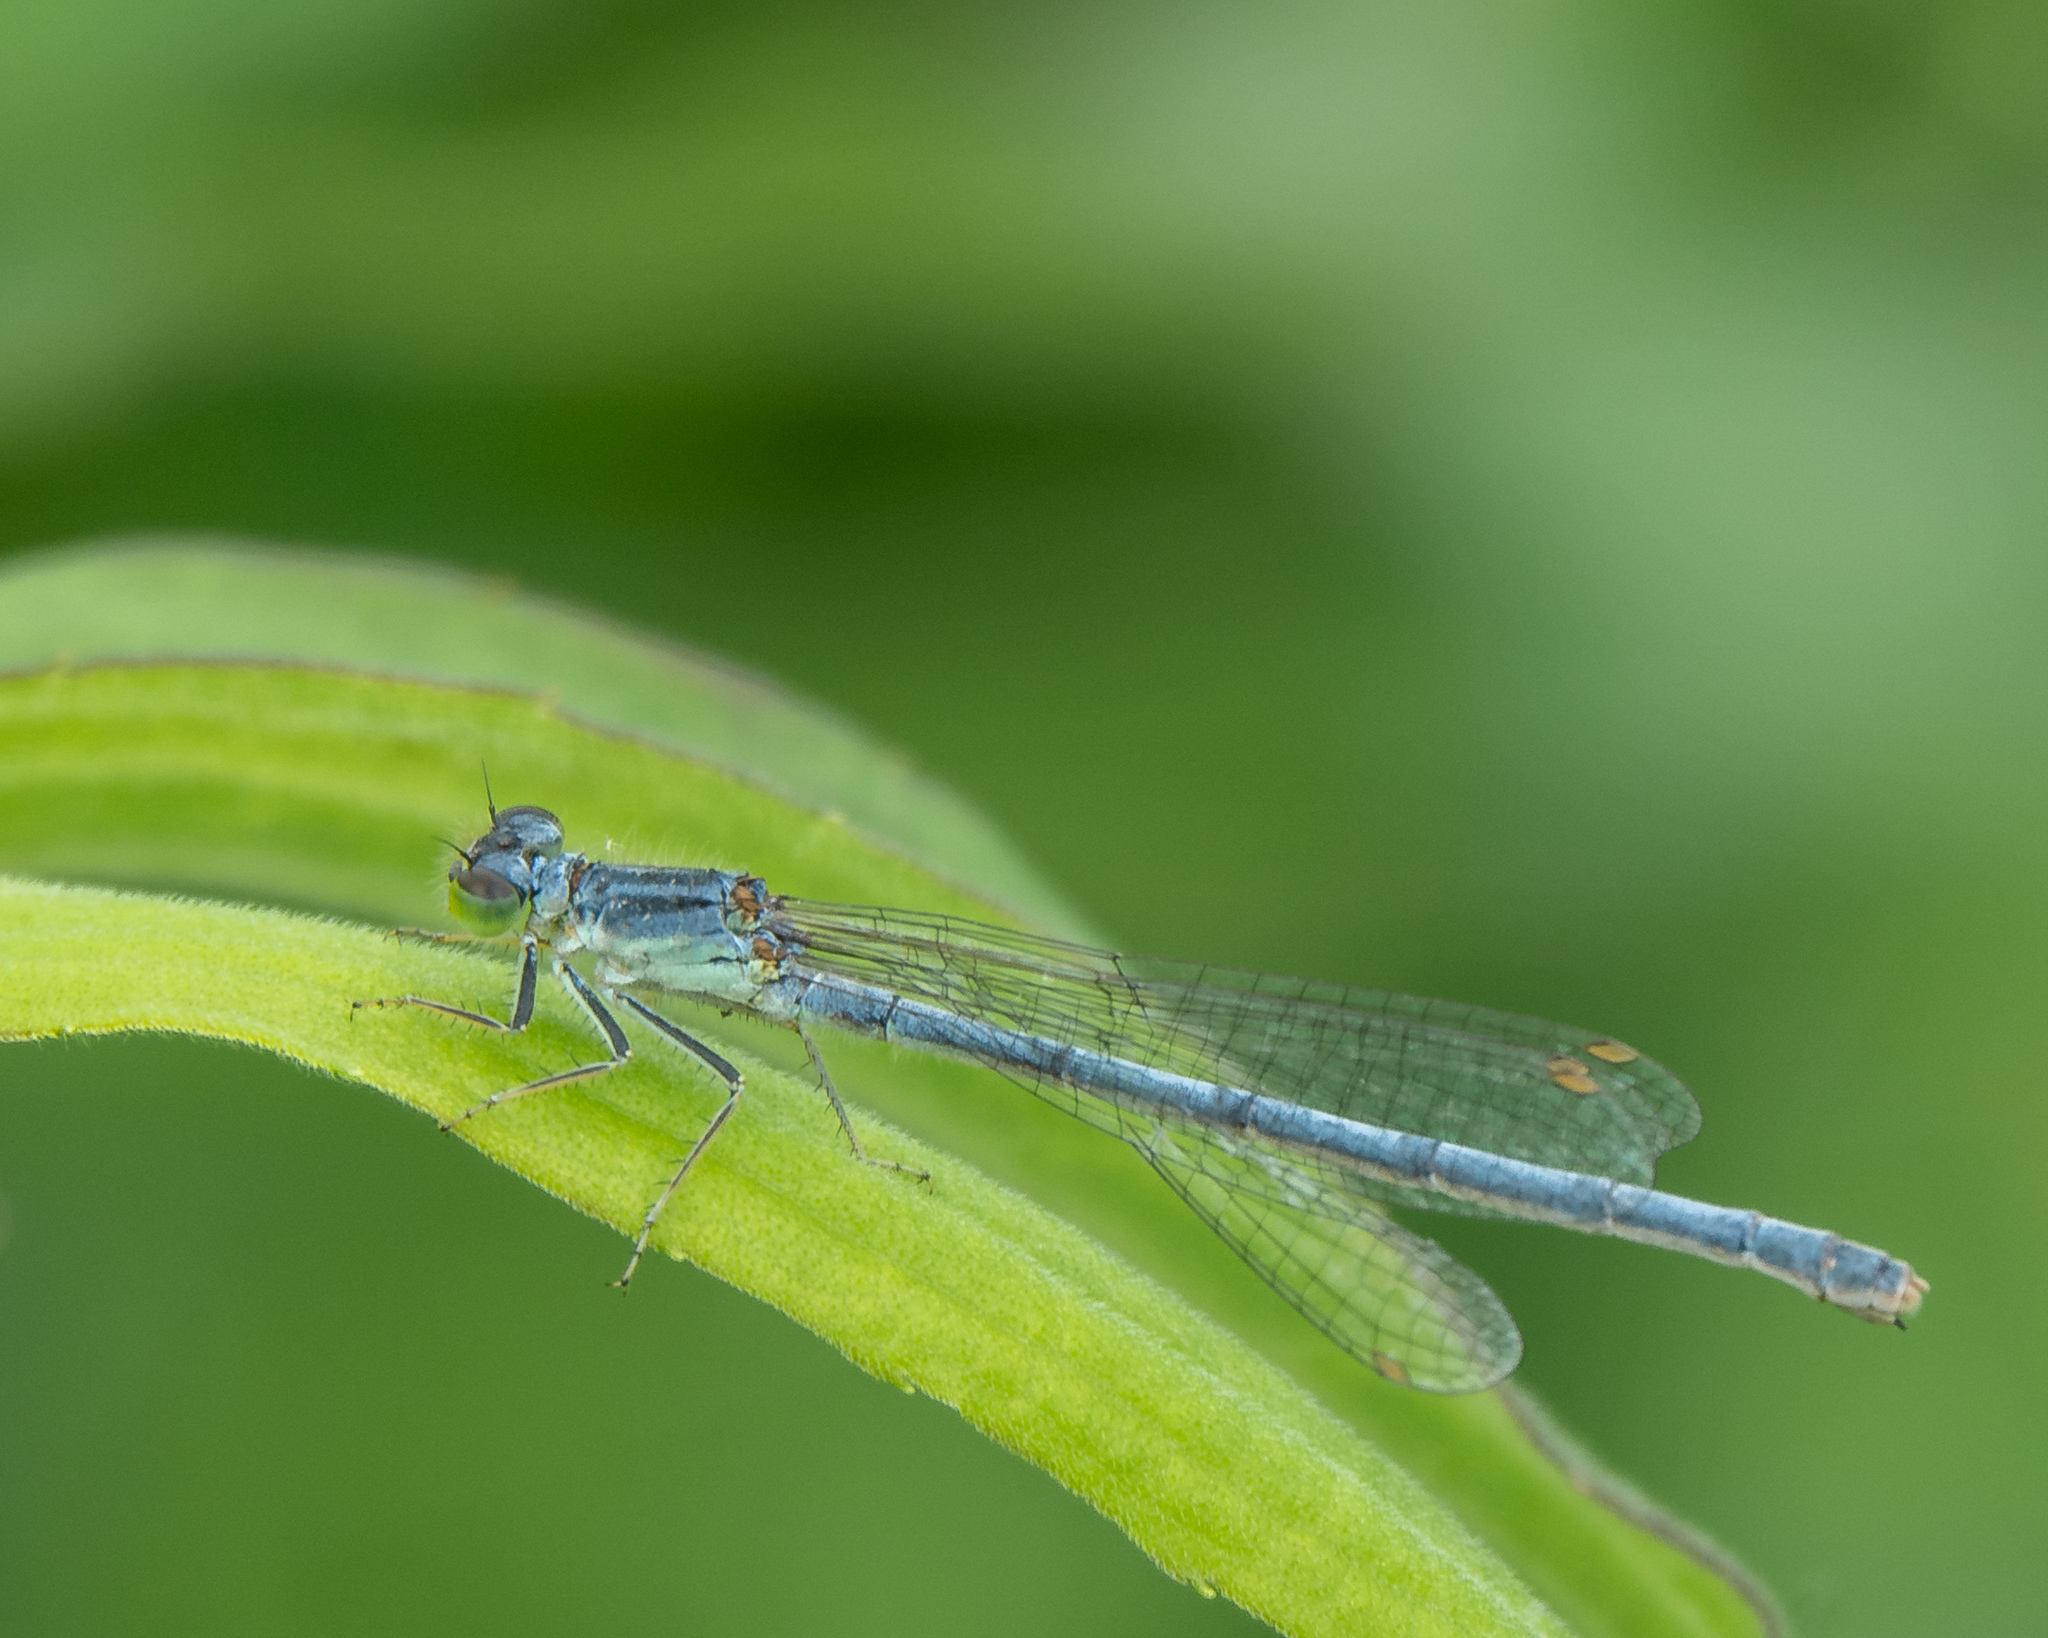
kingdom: Animalia
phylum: Arthropoda
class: Insecta
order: Odonata
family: Coenagrionidae
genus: Ischnura
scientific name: Ischnura verticalis
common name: Eastern forktail
